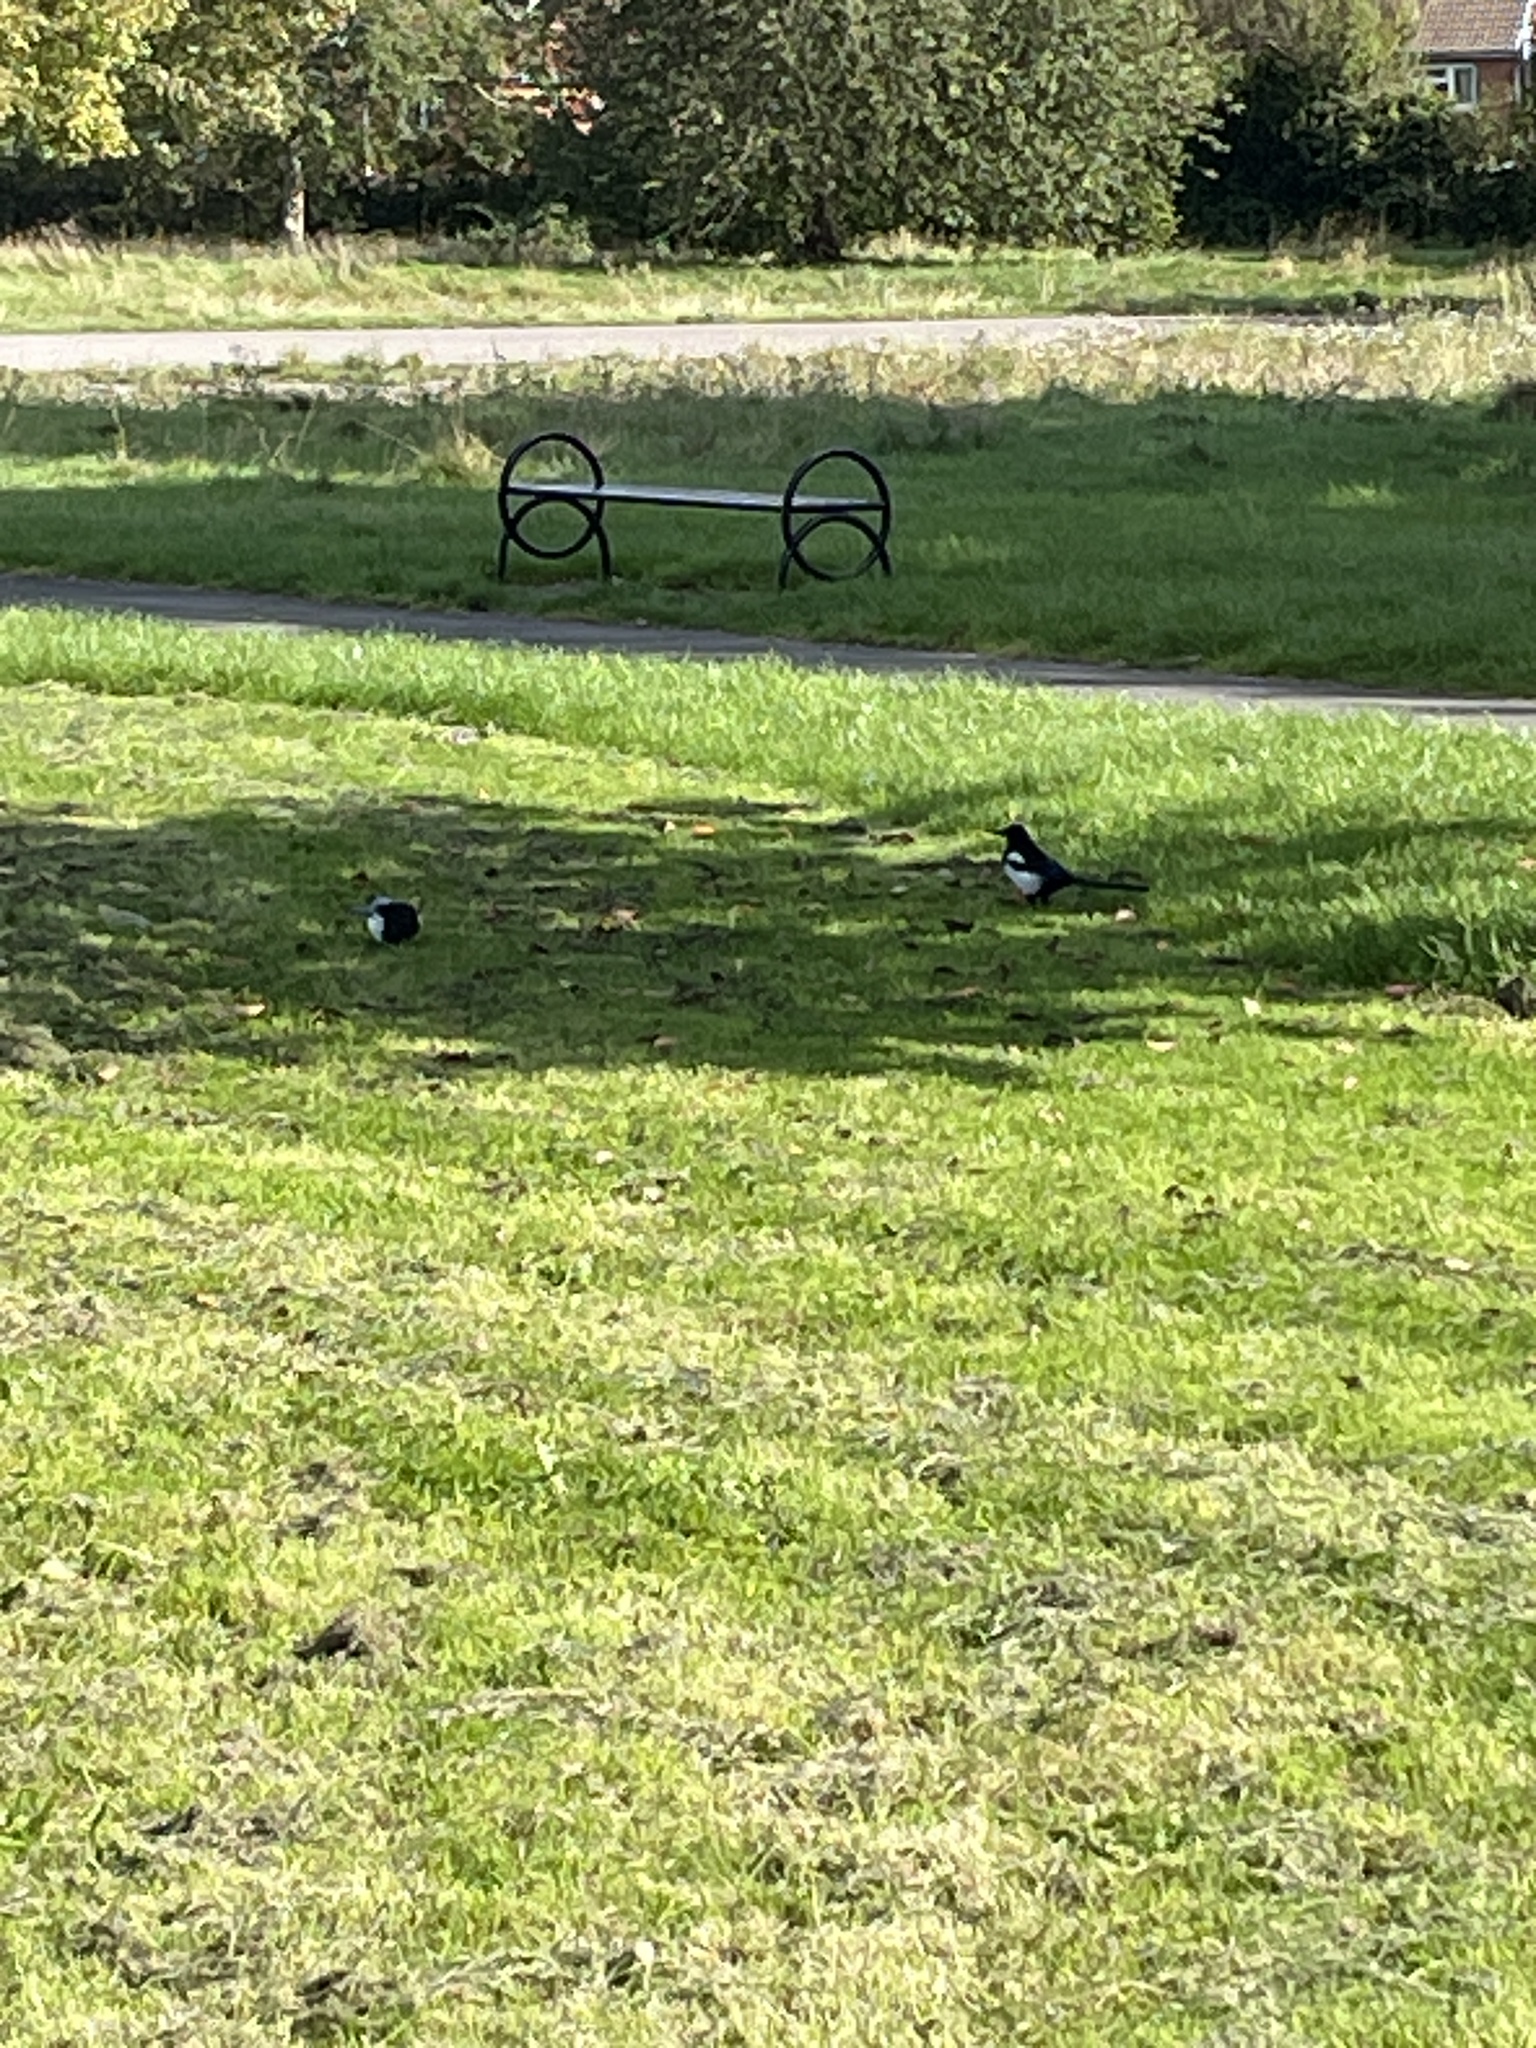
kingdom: Animalia
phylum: Chordata
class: Aves
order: Passeriformes
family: Corvidae
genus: Pica
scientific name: Pica pica
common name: Eurasian magpie
